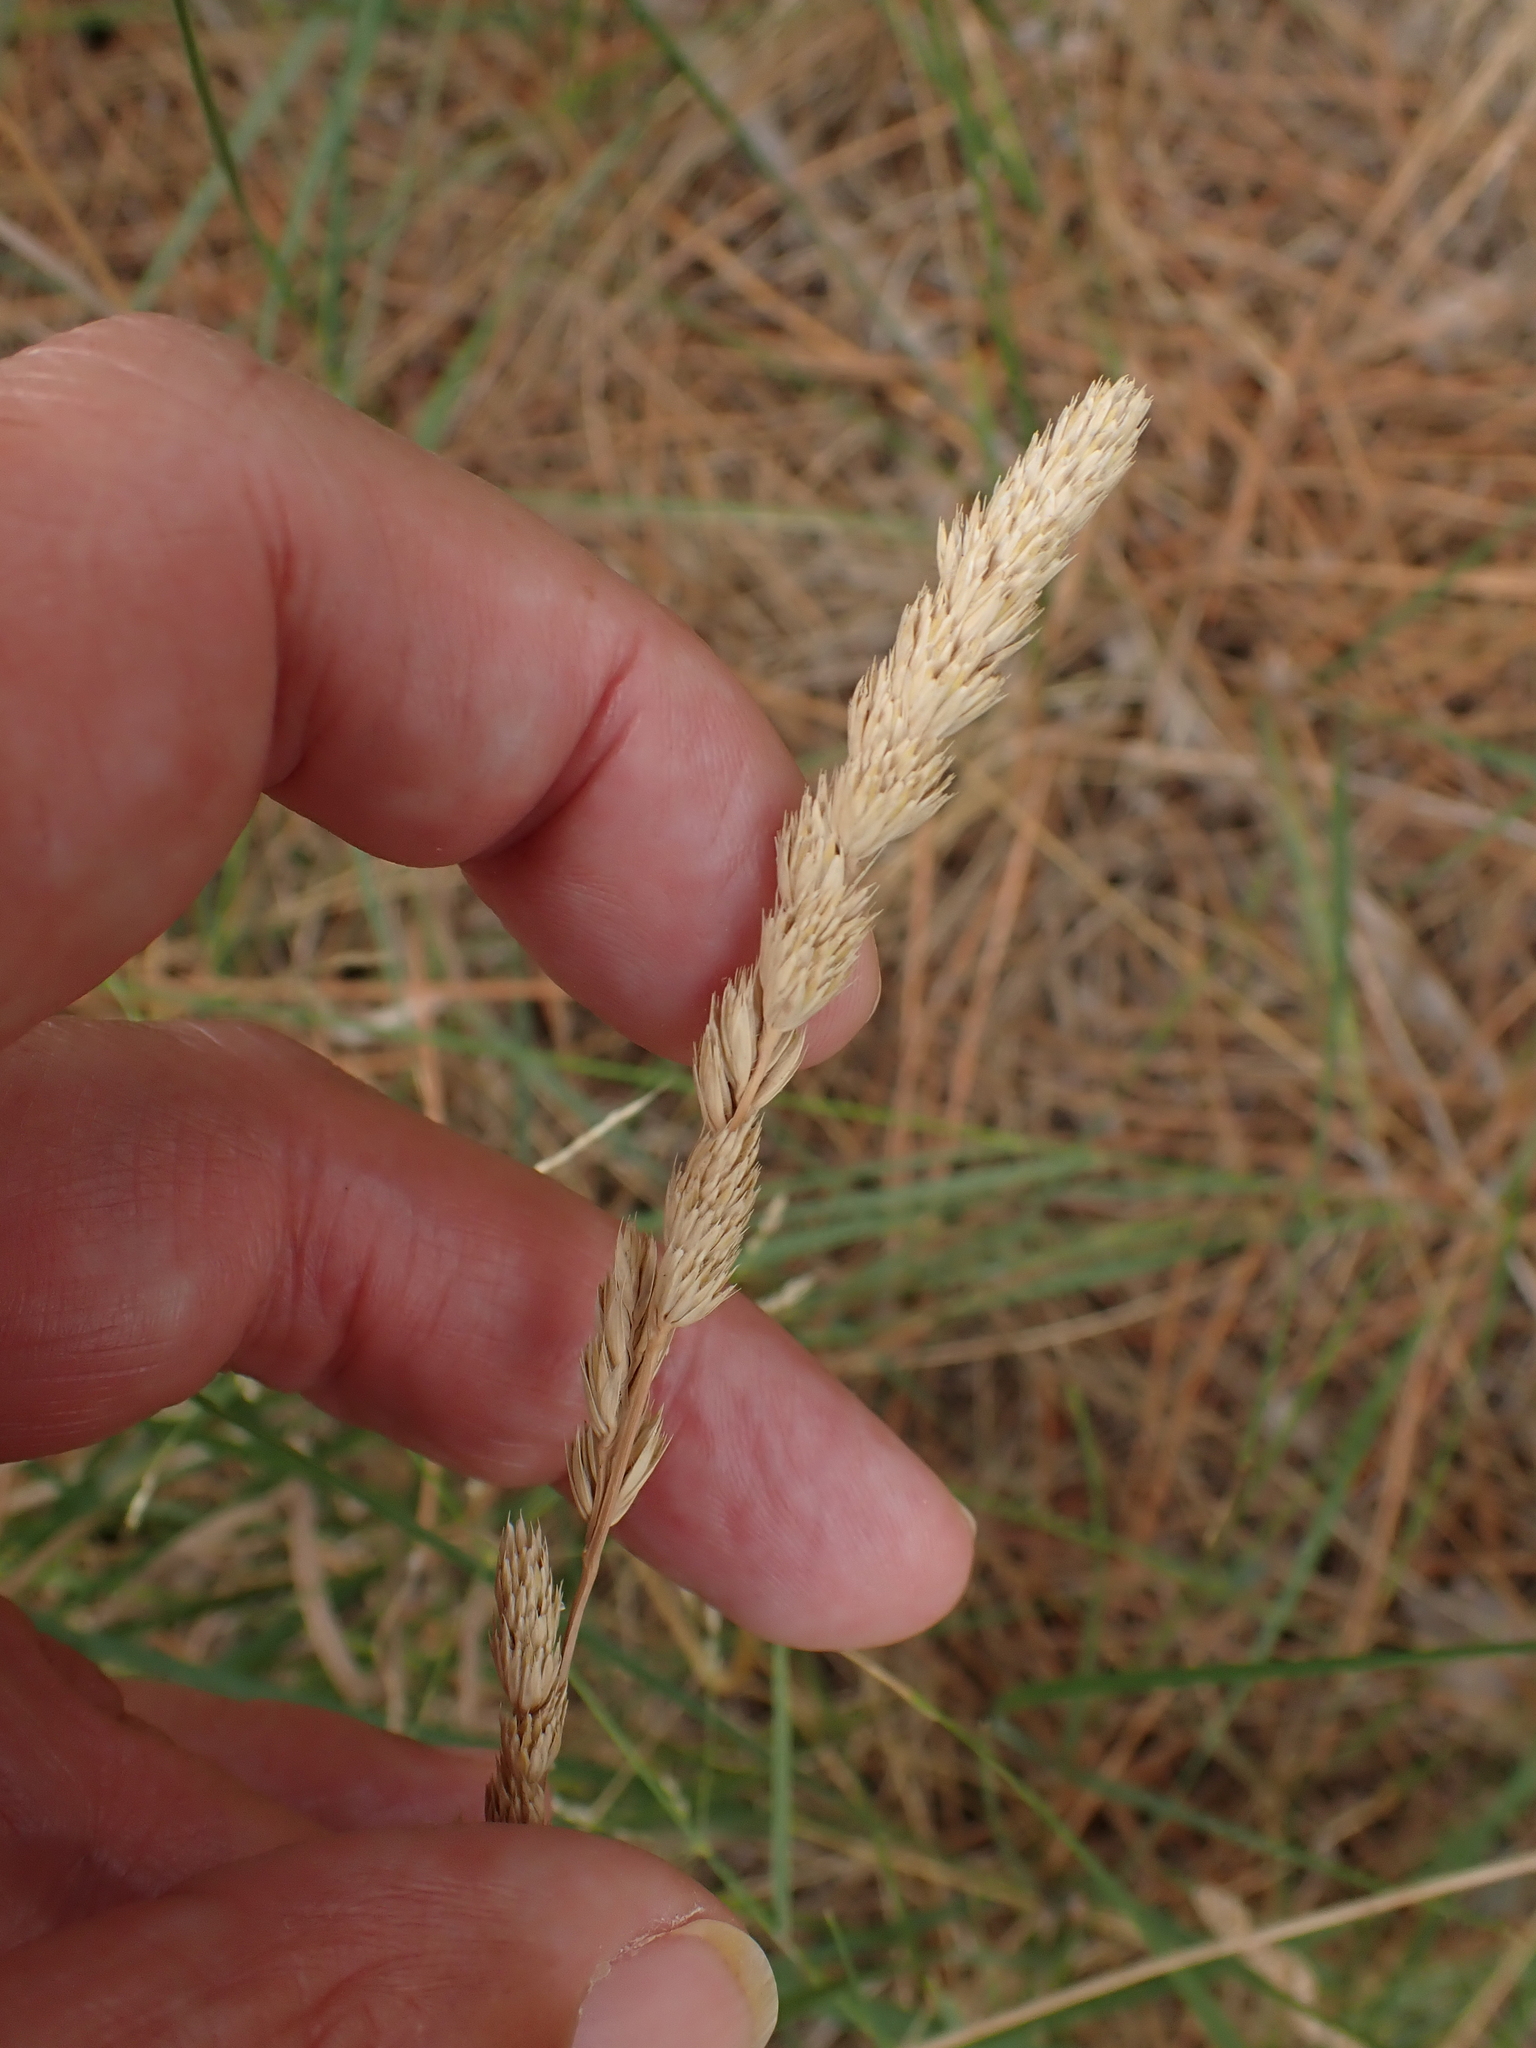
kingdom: Plantae
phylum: Tracheophyta
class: Liliopsida
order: Poales
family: Poaceae
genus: Dactylis
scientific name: Dactylis glomerata
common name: Orchardgrass
